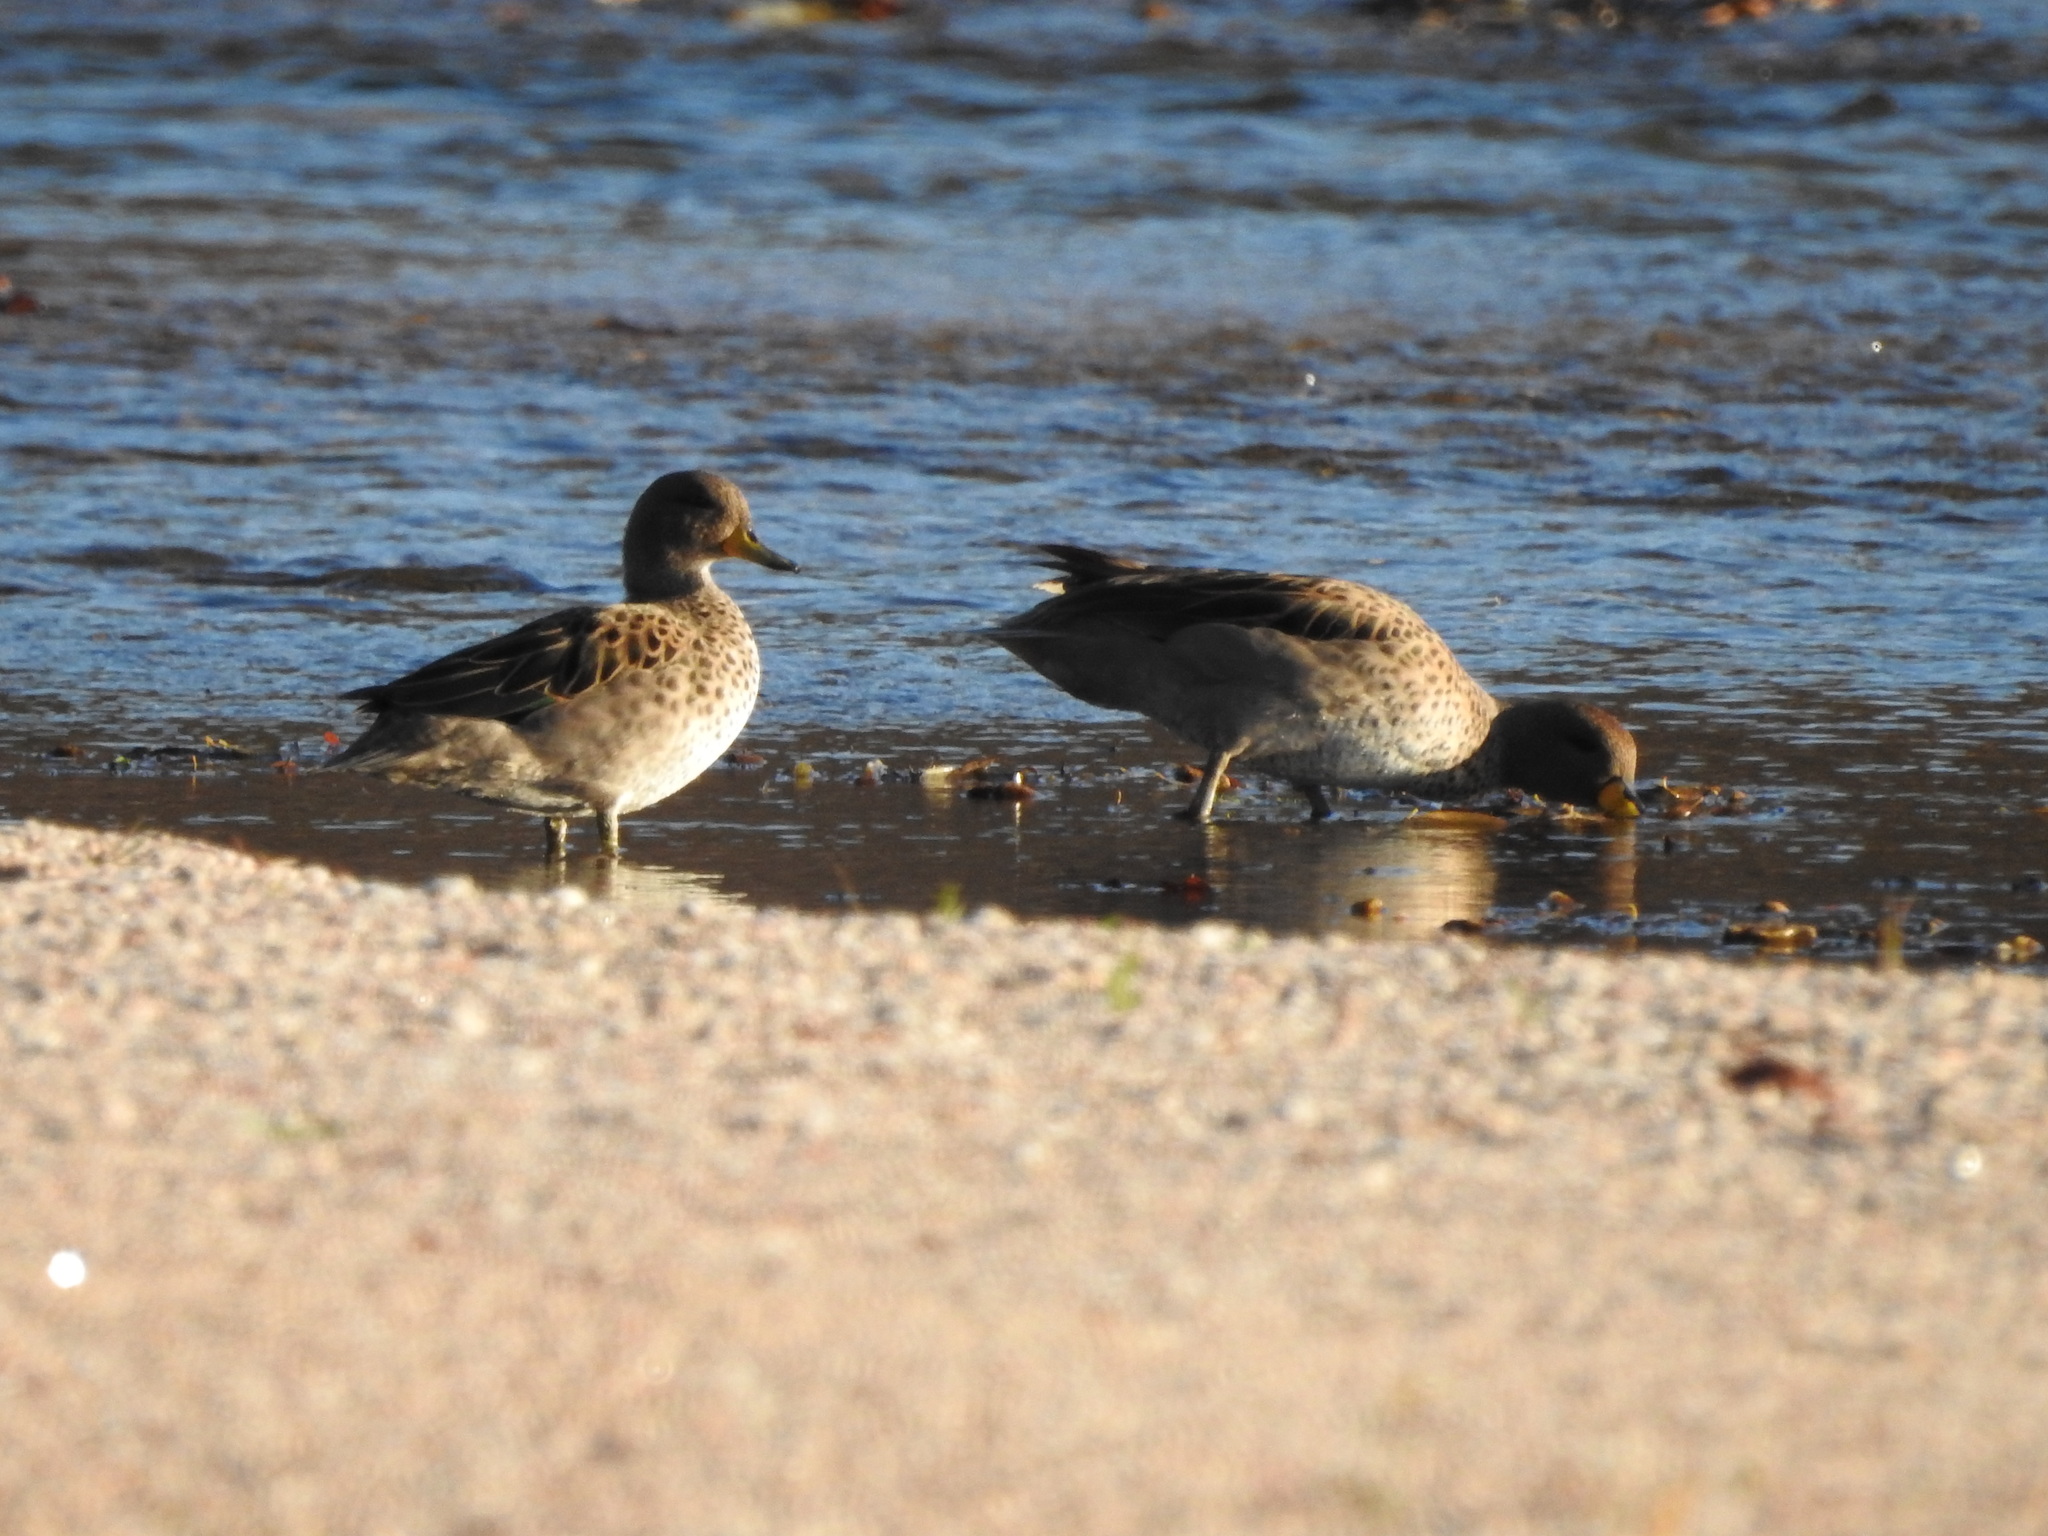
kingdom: Animalia
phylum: Chordata
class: Aves
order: Anseriformes
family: Anatidae
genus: Anas
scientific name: Anas flavirostris
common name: Yellow-billed teal
